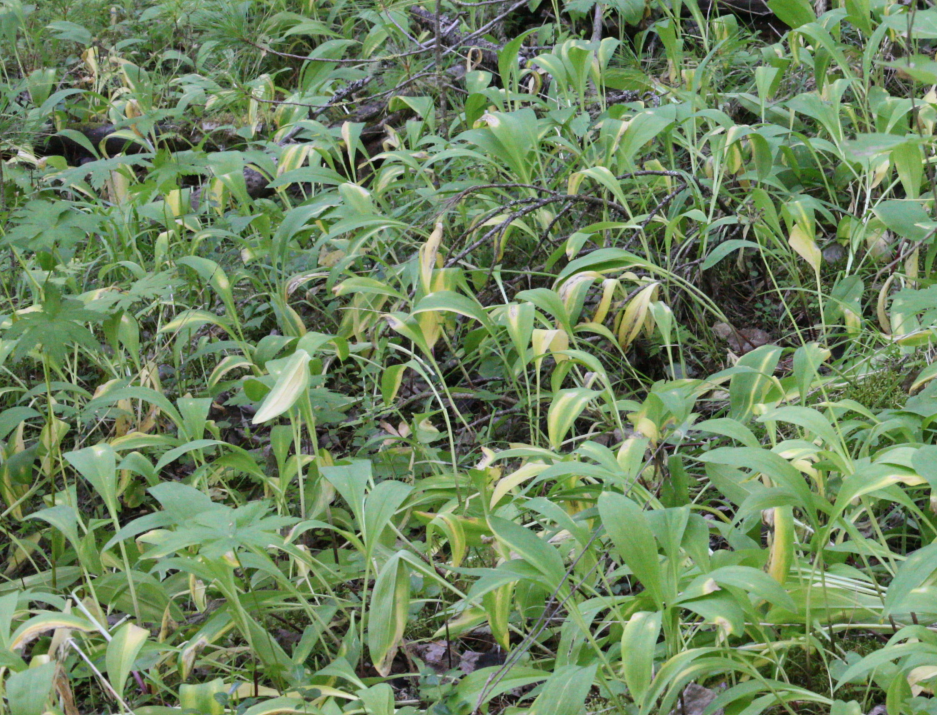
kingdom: Plantae
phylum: Tracheophyta
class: Liliopsida
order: Asparagales
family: Amaryllidaceae
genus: Allium
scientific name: Allium microdictyon
